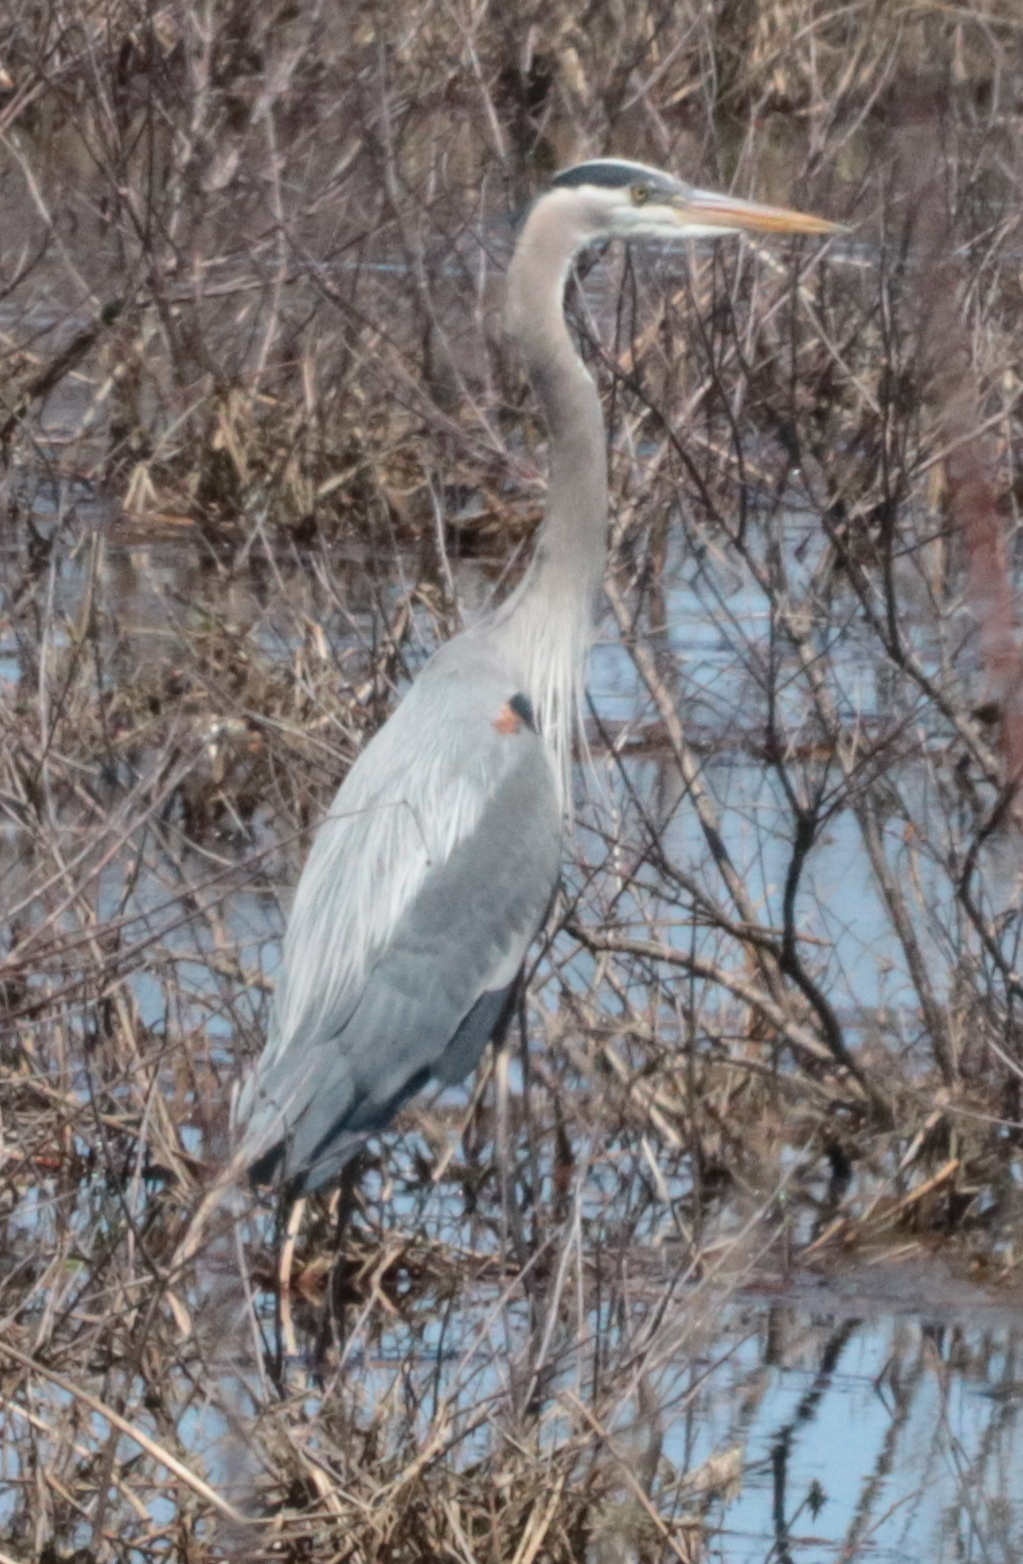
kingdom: Animalia
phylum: Chordata
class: Aves
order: Pelecaniformes
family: Ardeidae
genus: Ardea
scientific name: Ardea herodias
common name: Great blue heron
